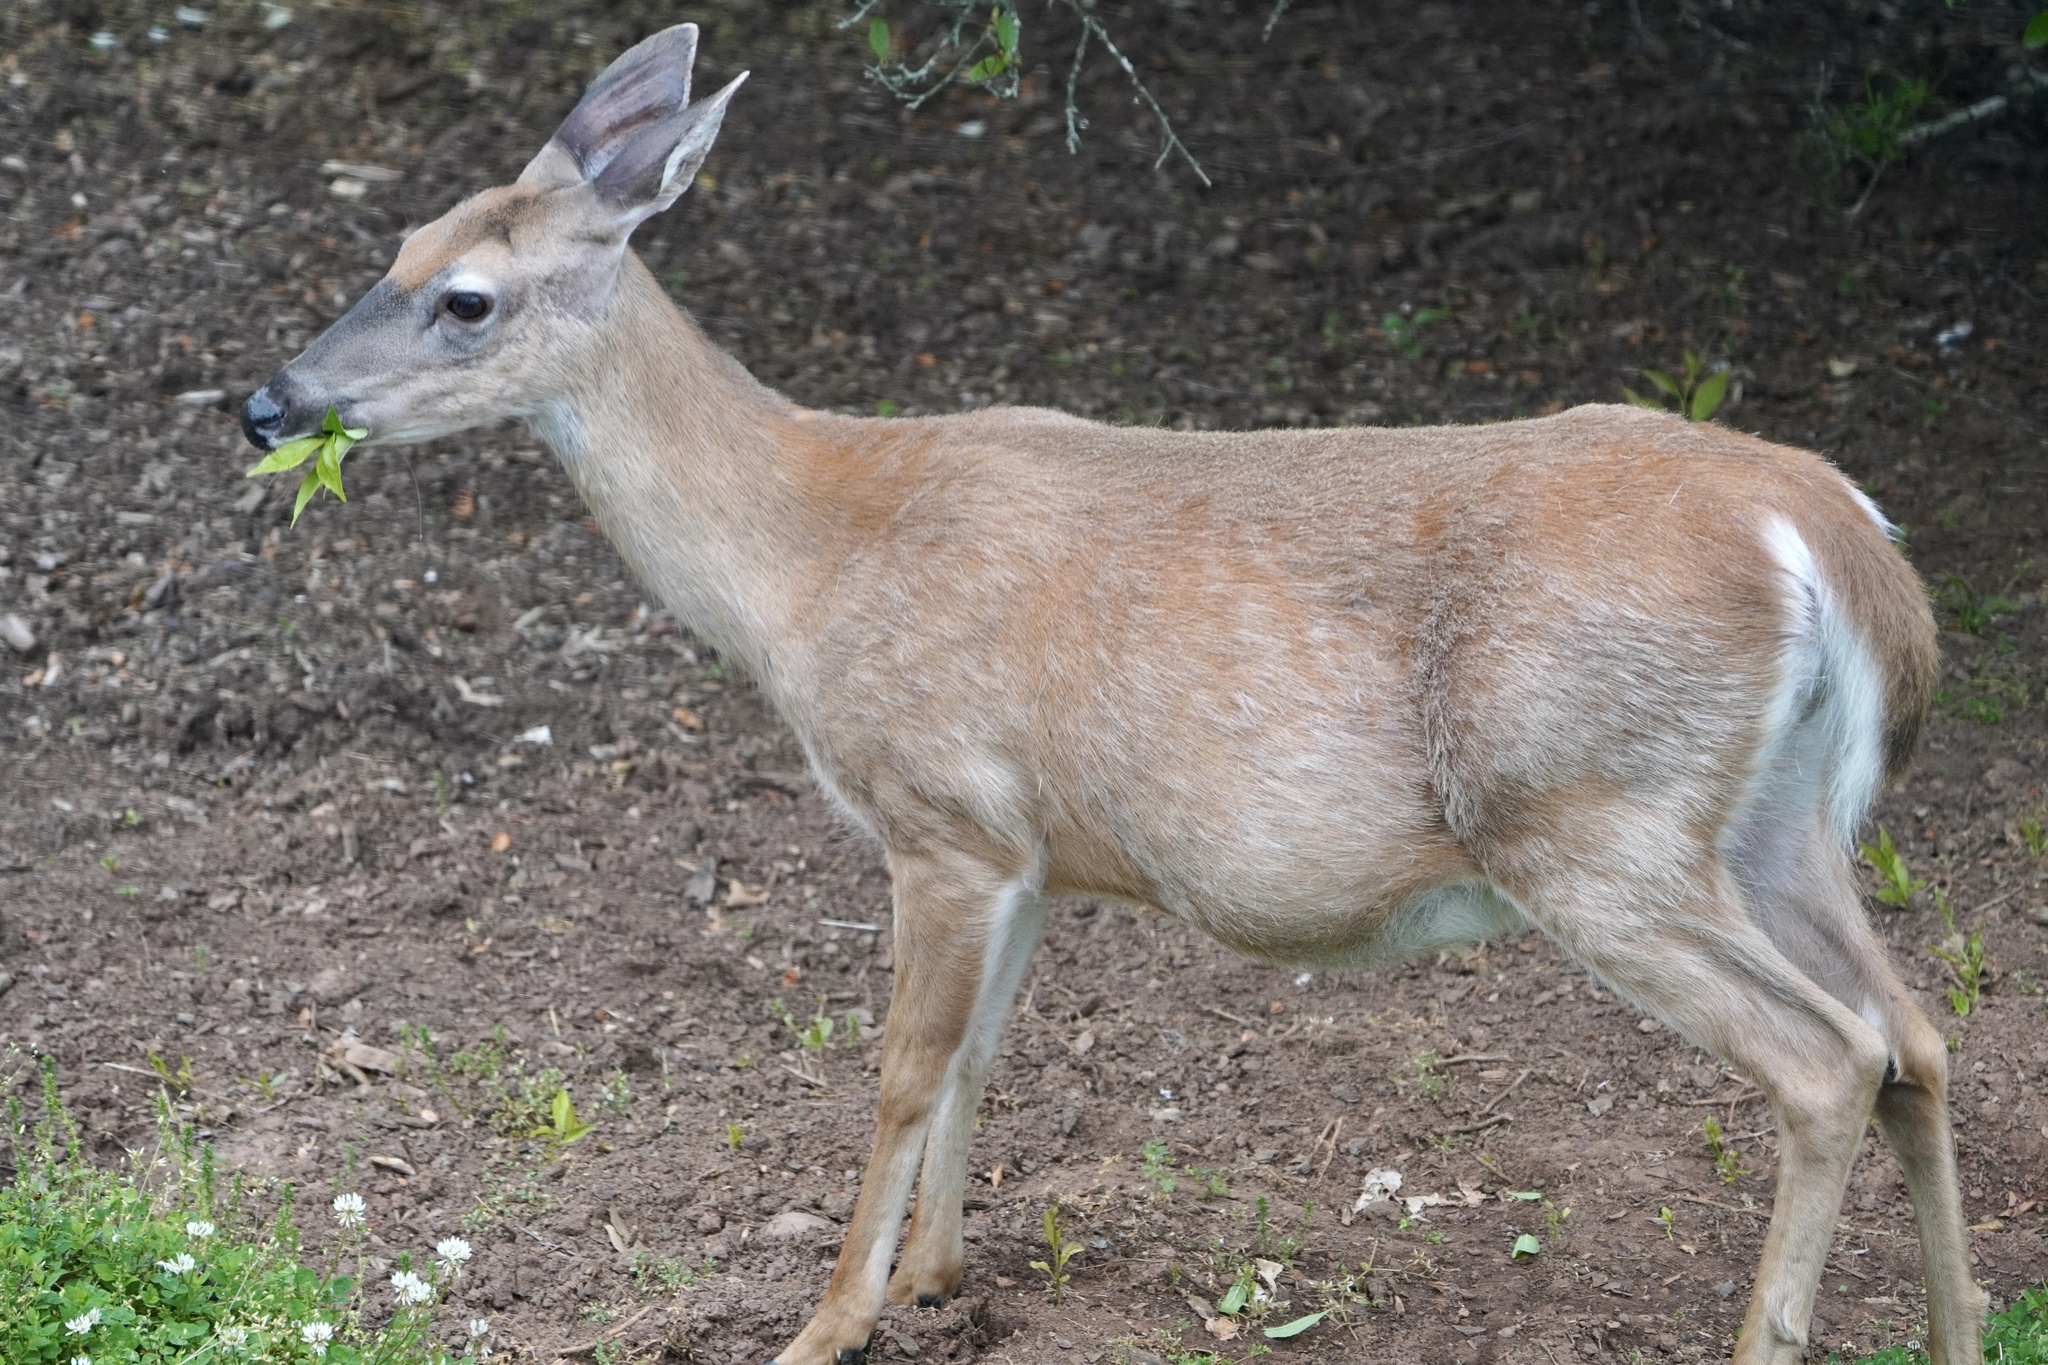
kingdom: Animalia
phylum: Chordata
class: Mammalia
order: Artiodactyla
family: Cervidae
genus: Odocoileus
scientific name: Odocoileus virginianus
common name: White-tailed deer
